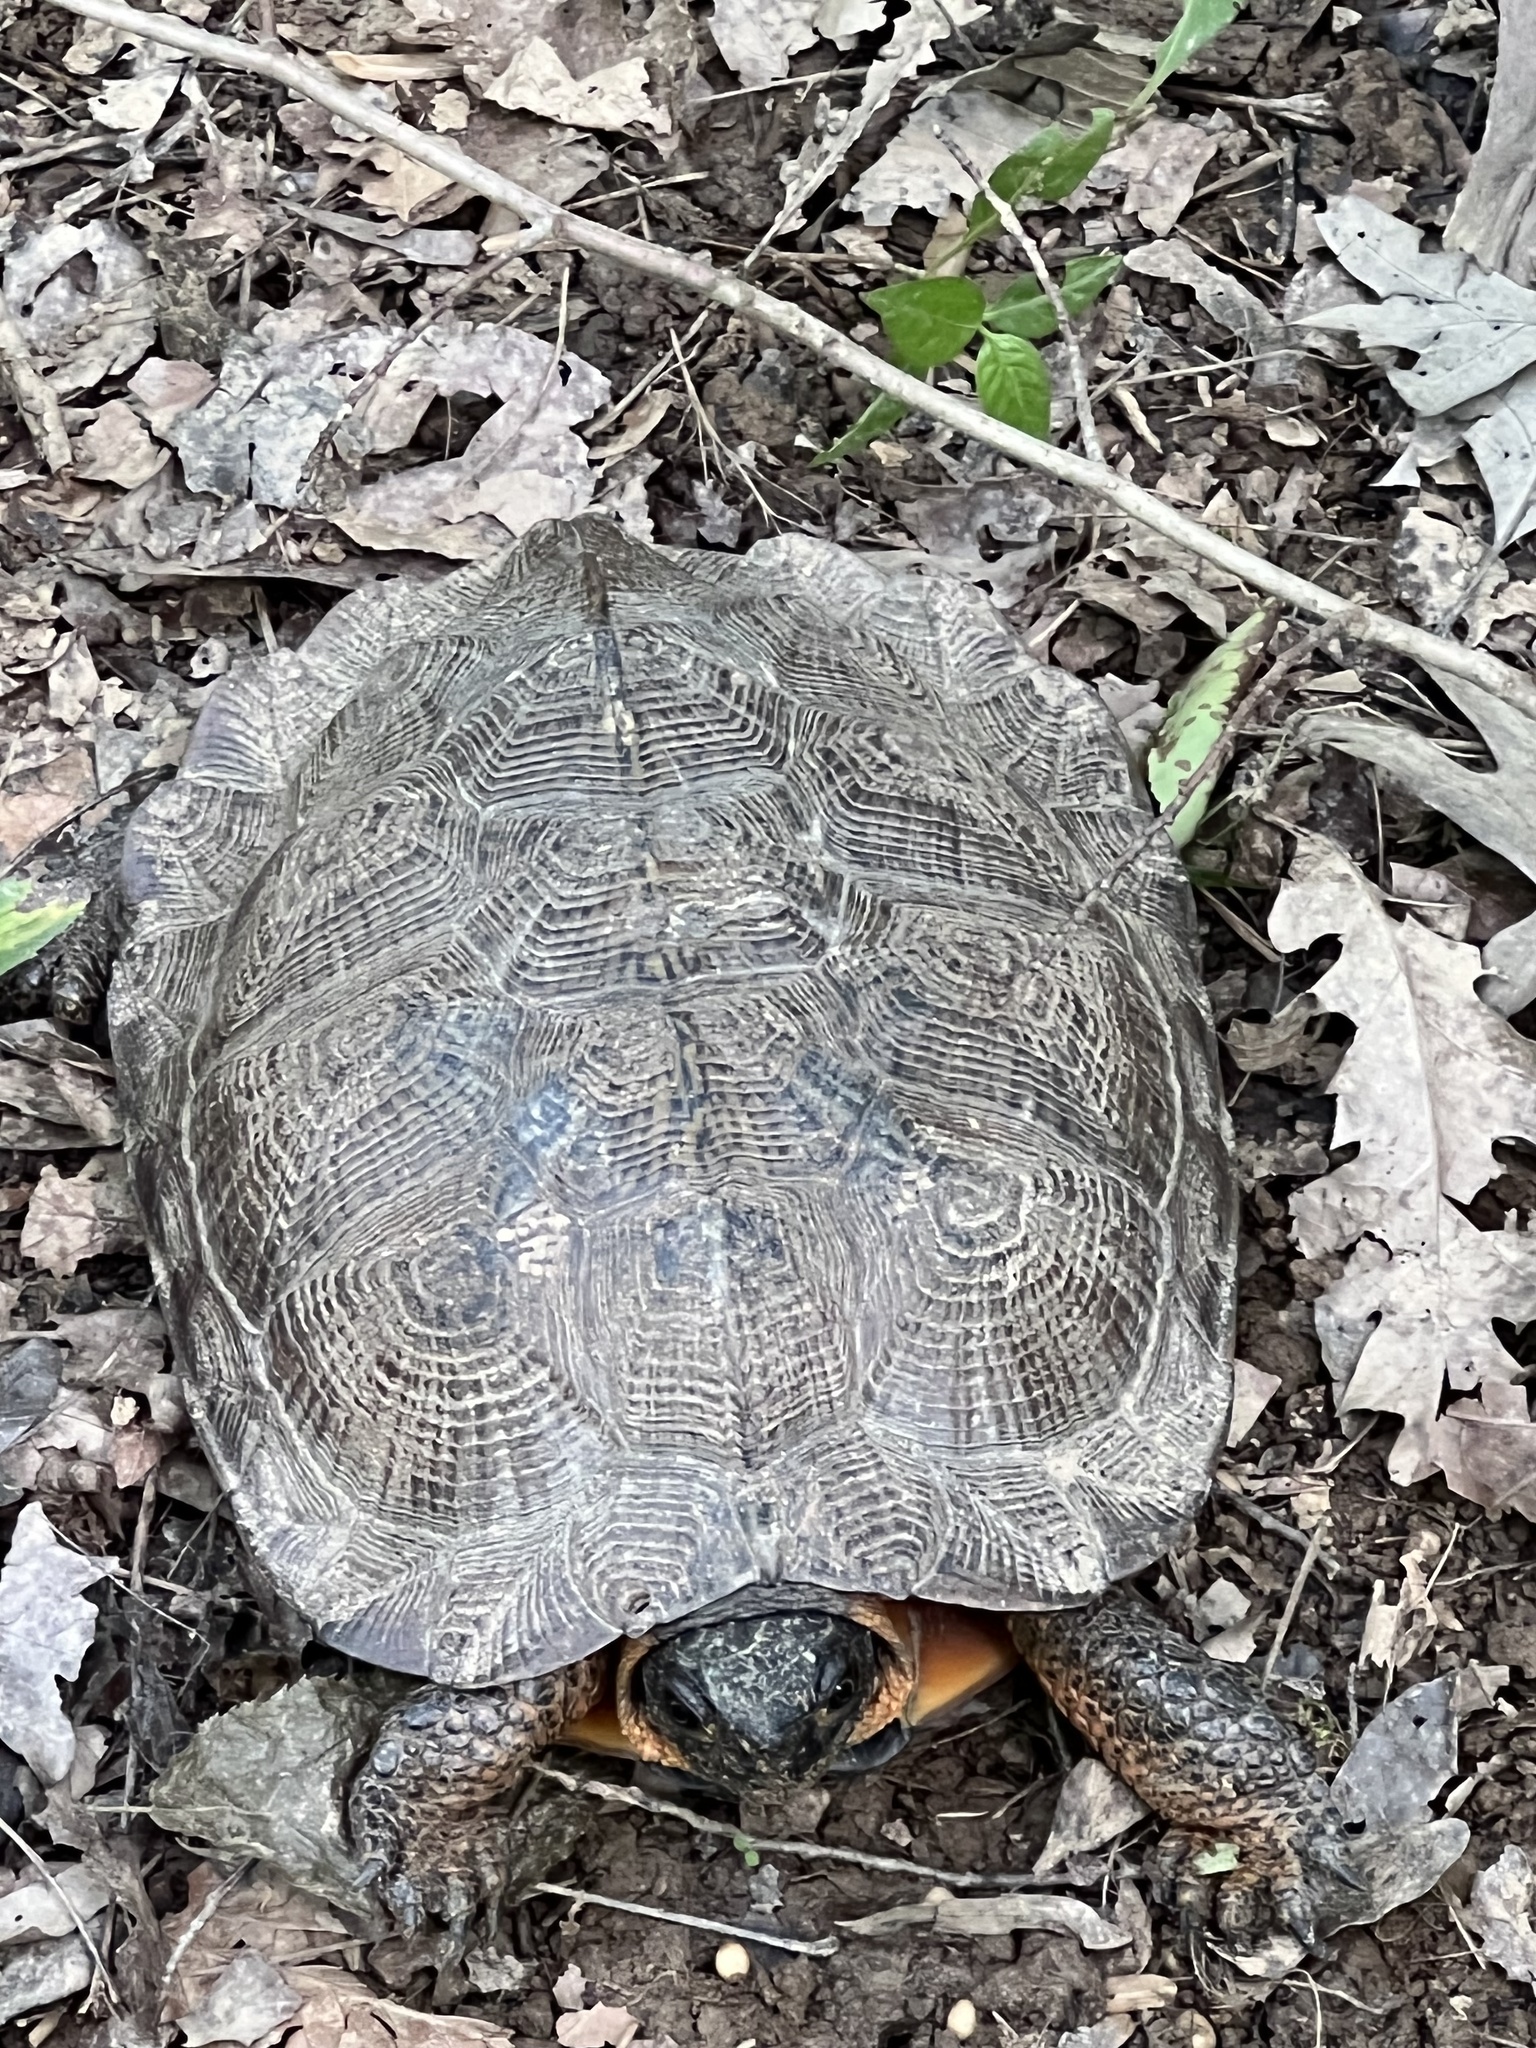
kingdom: Animalia
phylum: Chordata
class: Testudines
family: Emydidae
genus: Glyptemys
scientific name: Glyptemys insculpta
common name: Wood turtle
